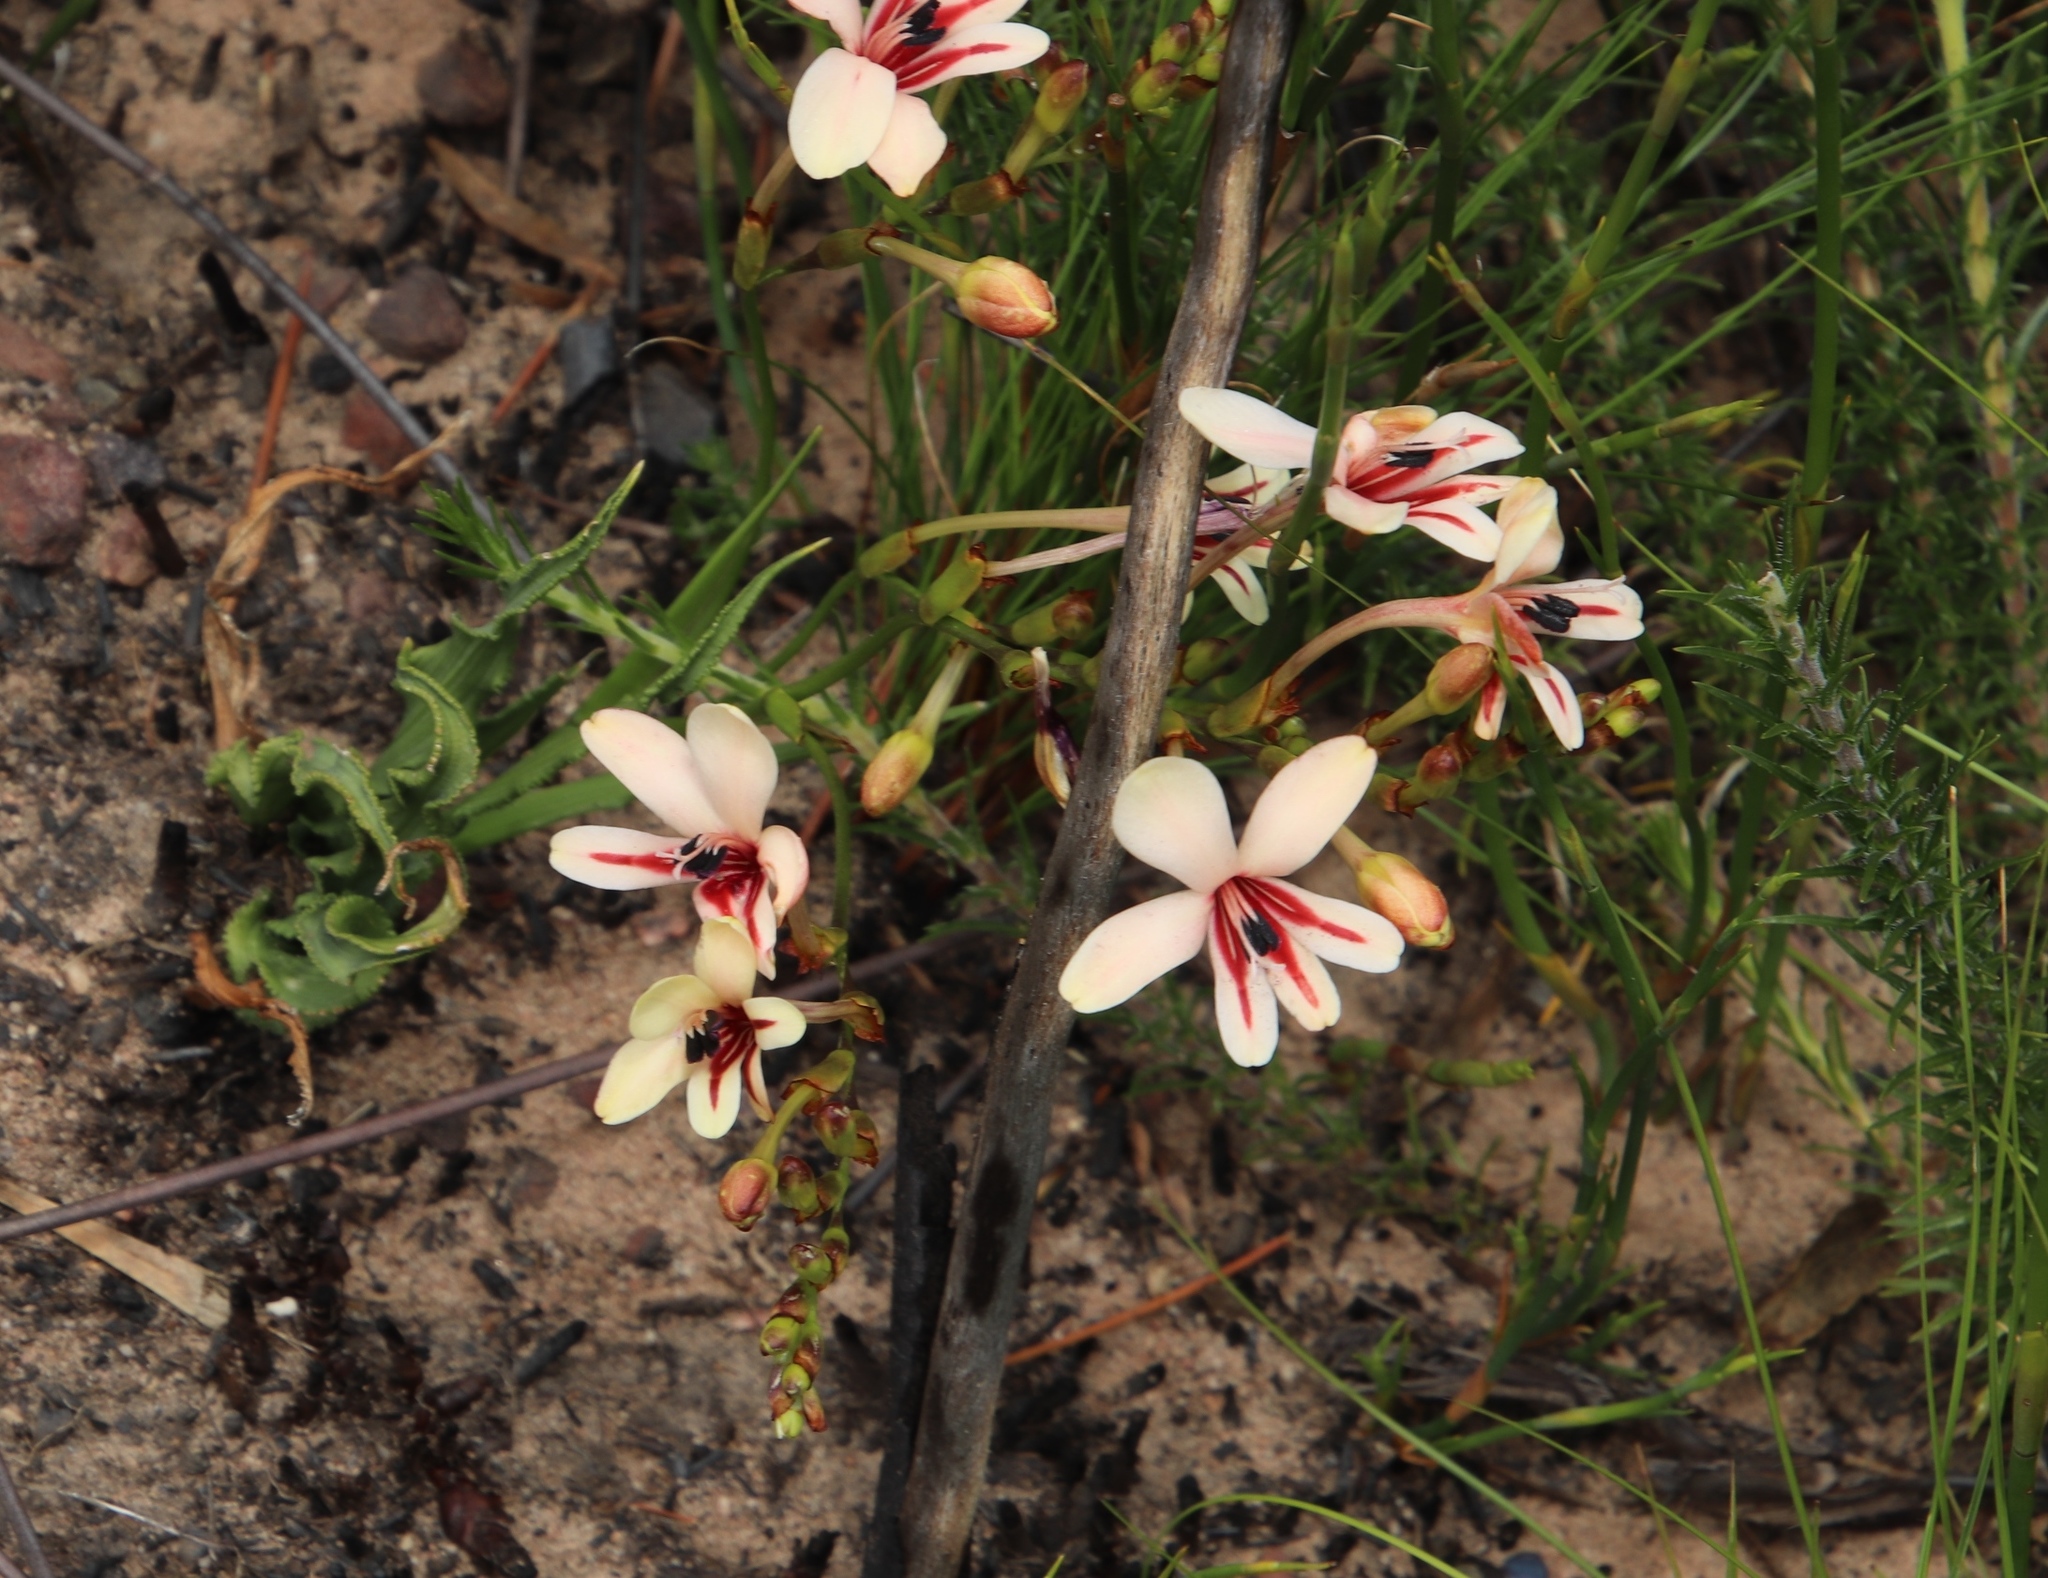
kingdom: Plantae
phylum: Tracheophyta
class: Liliopsida
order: Asparagales
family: Iridaceae
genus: Tritonia
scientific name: Tritonia undulata
